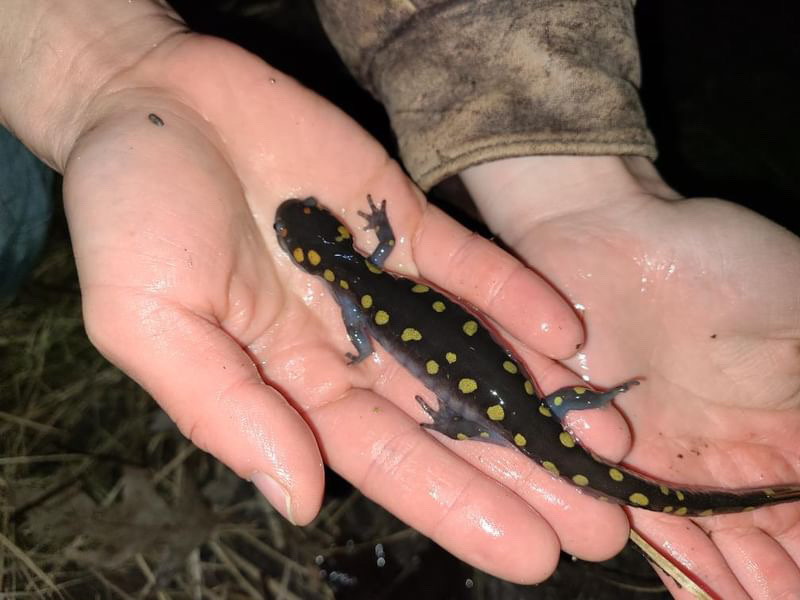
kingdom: Animalia
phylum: Chordata
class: Amphibia
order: Caudata
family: Ambystomatidae
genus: Ambystoma
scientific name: Ambystoma maculatum
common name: Spotted salamander
